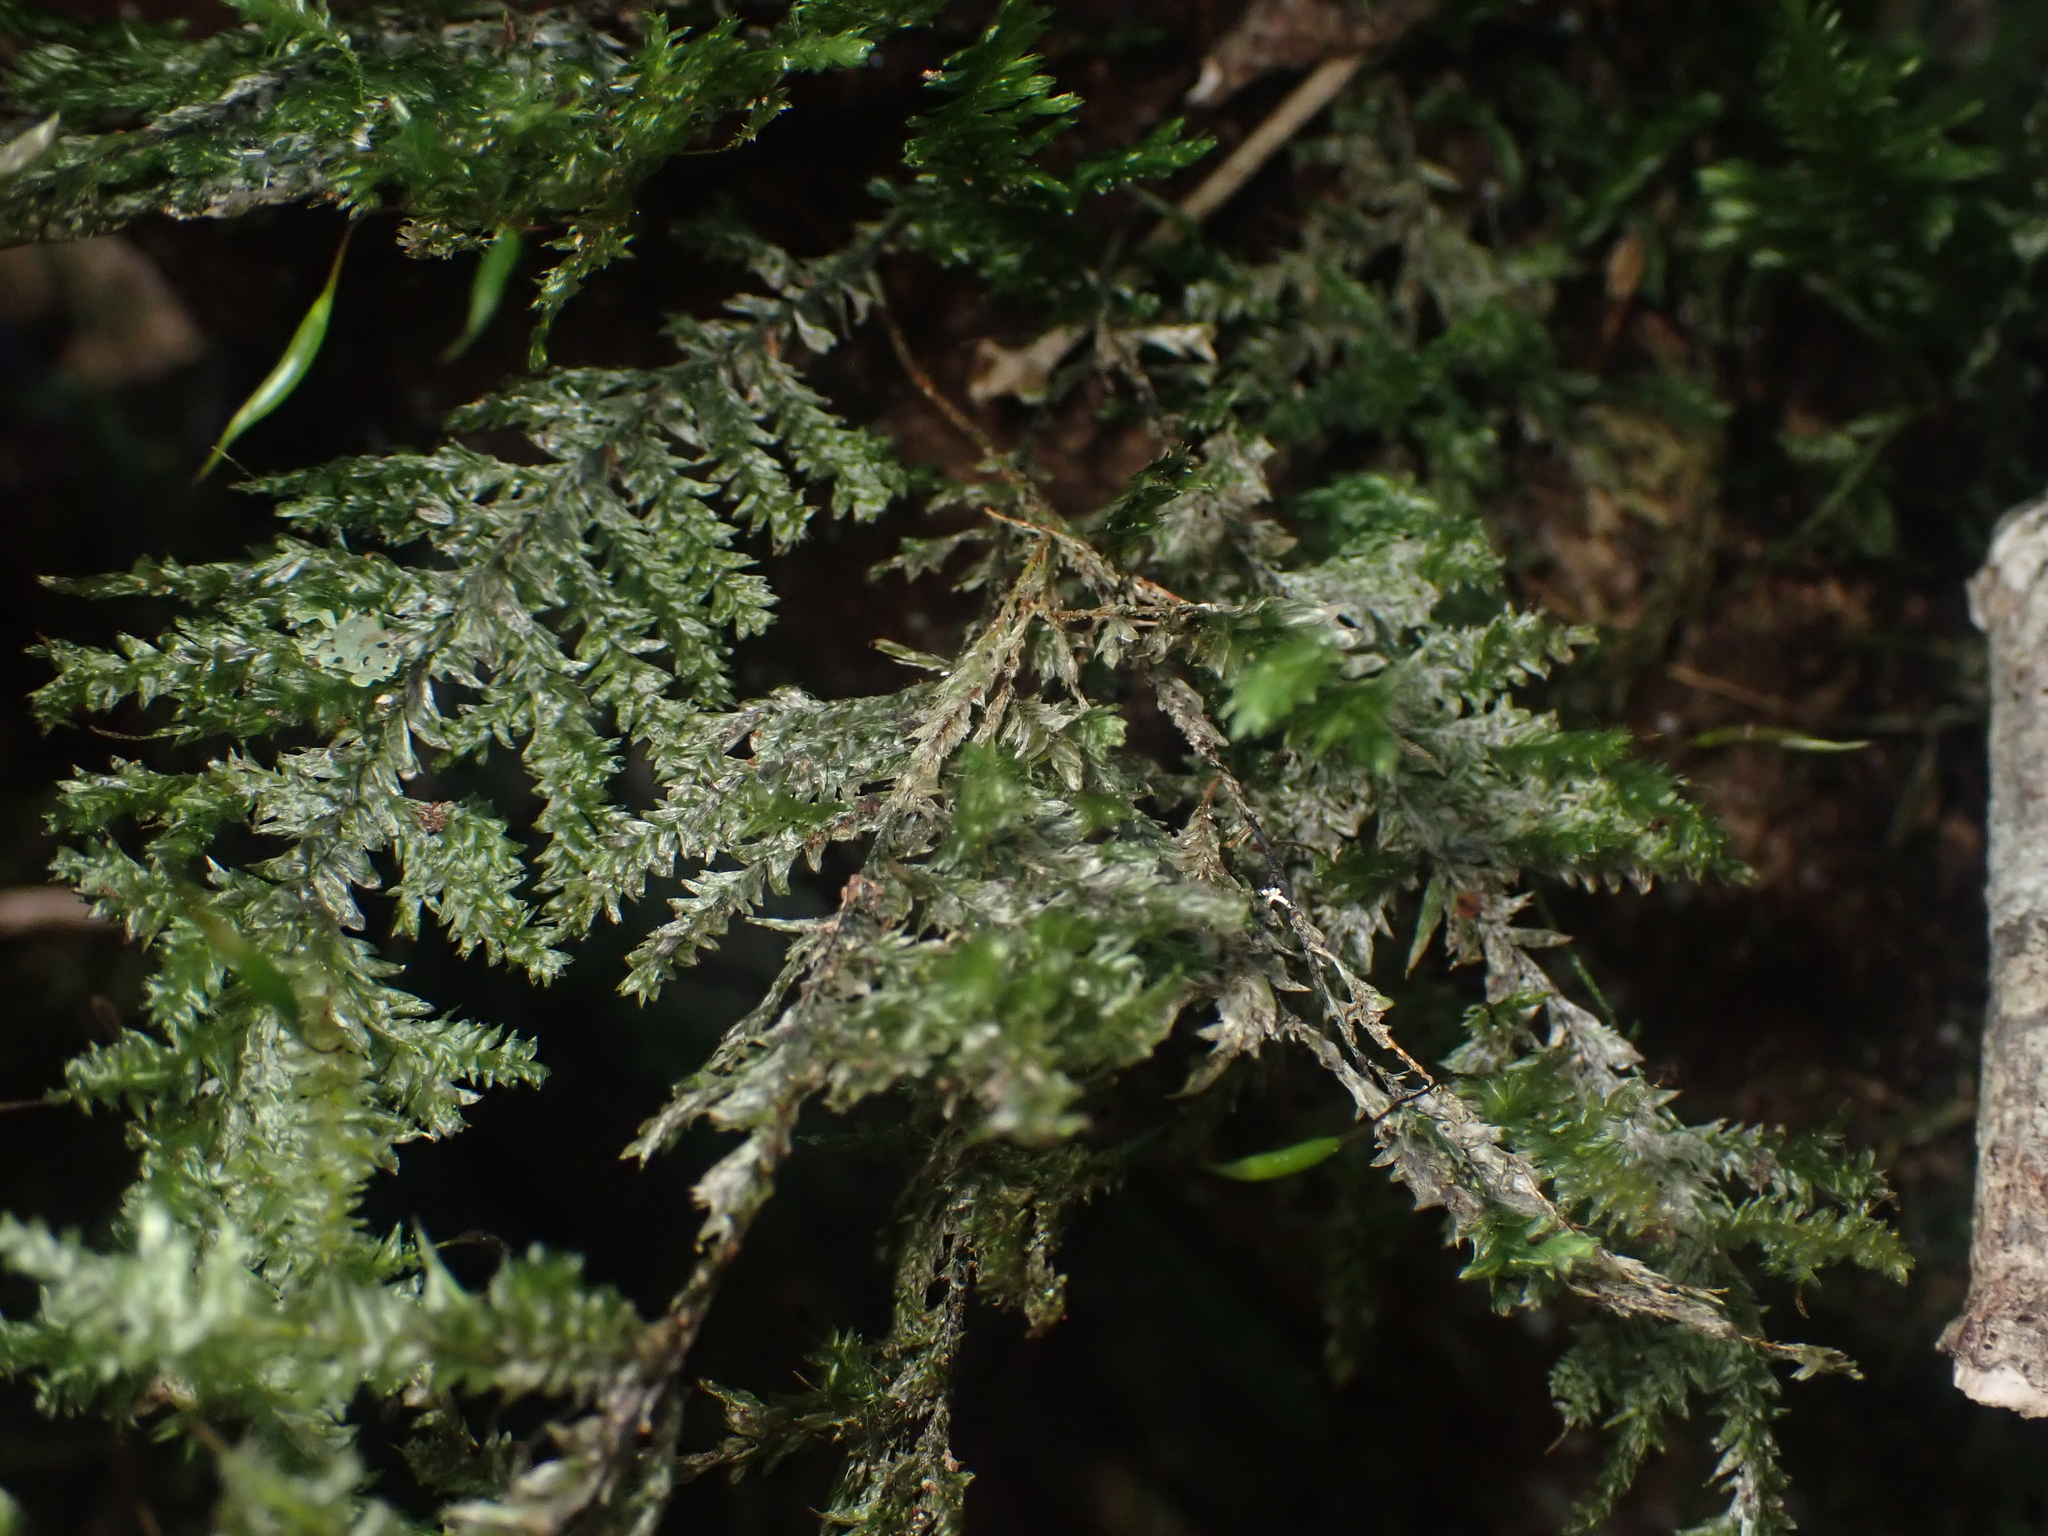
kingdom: Plantae
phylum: Bryophyta
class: Bryopsida
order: Hypnales
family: Trachylomataceae
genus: Trachyloma
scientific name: Trachyloma diversinerve
